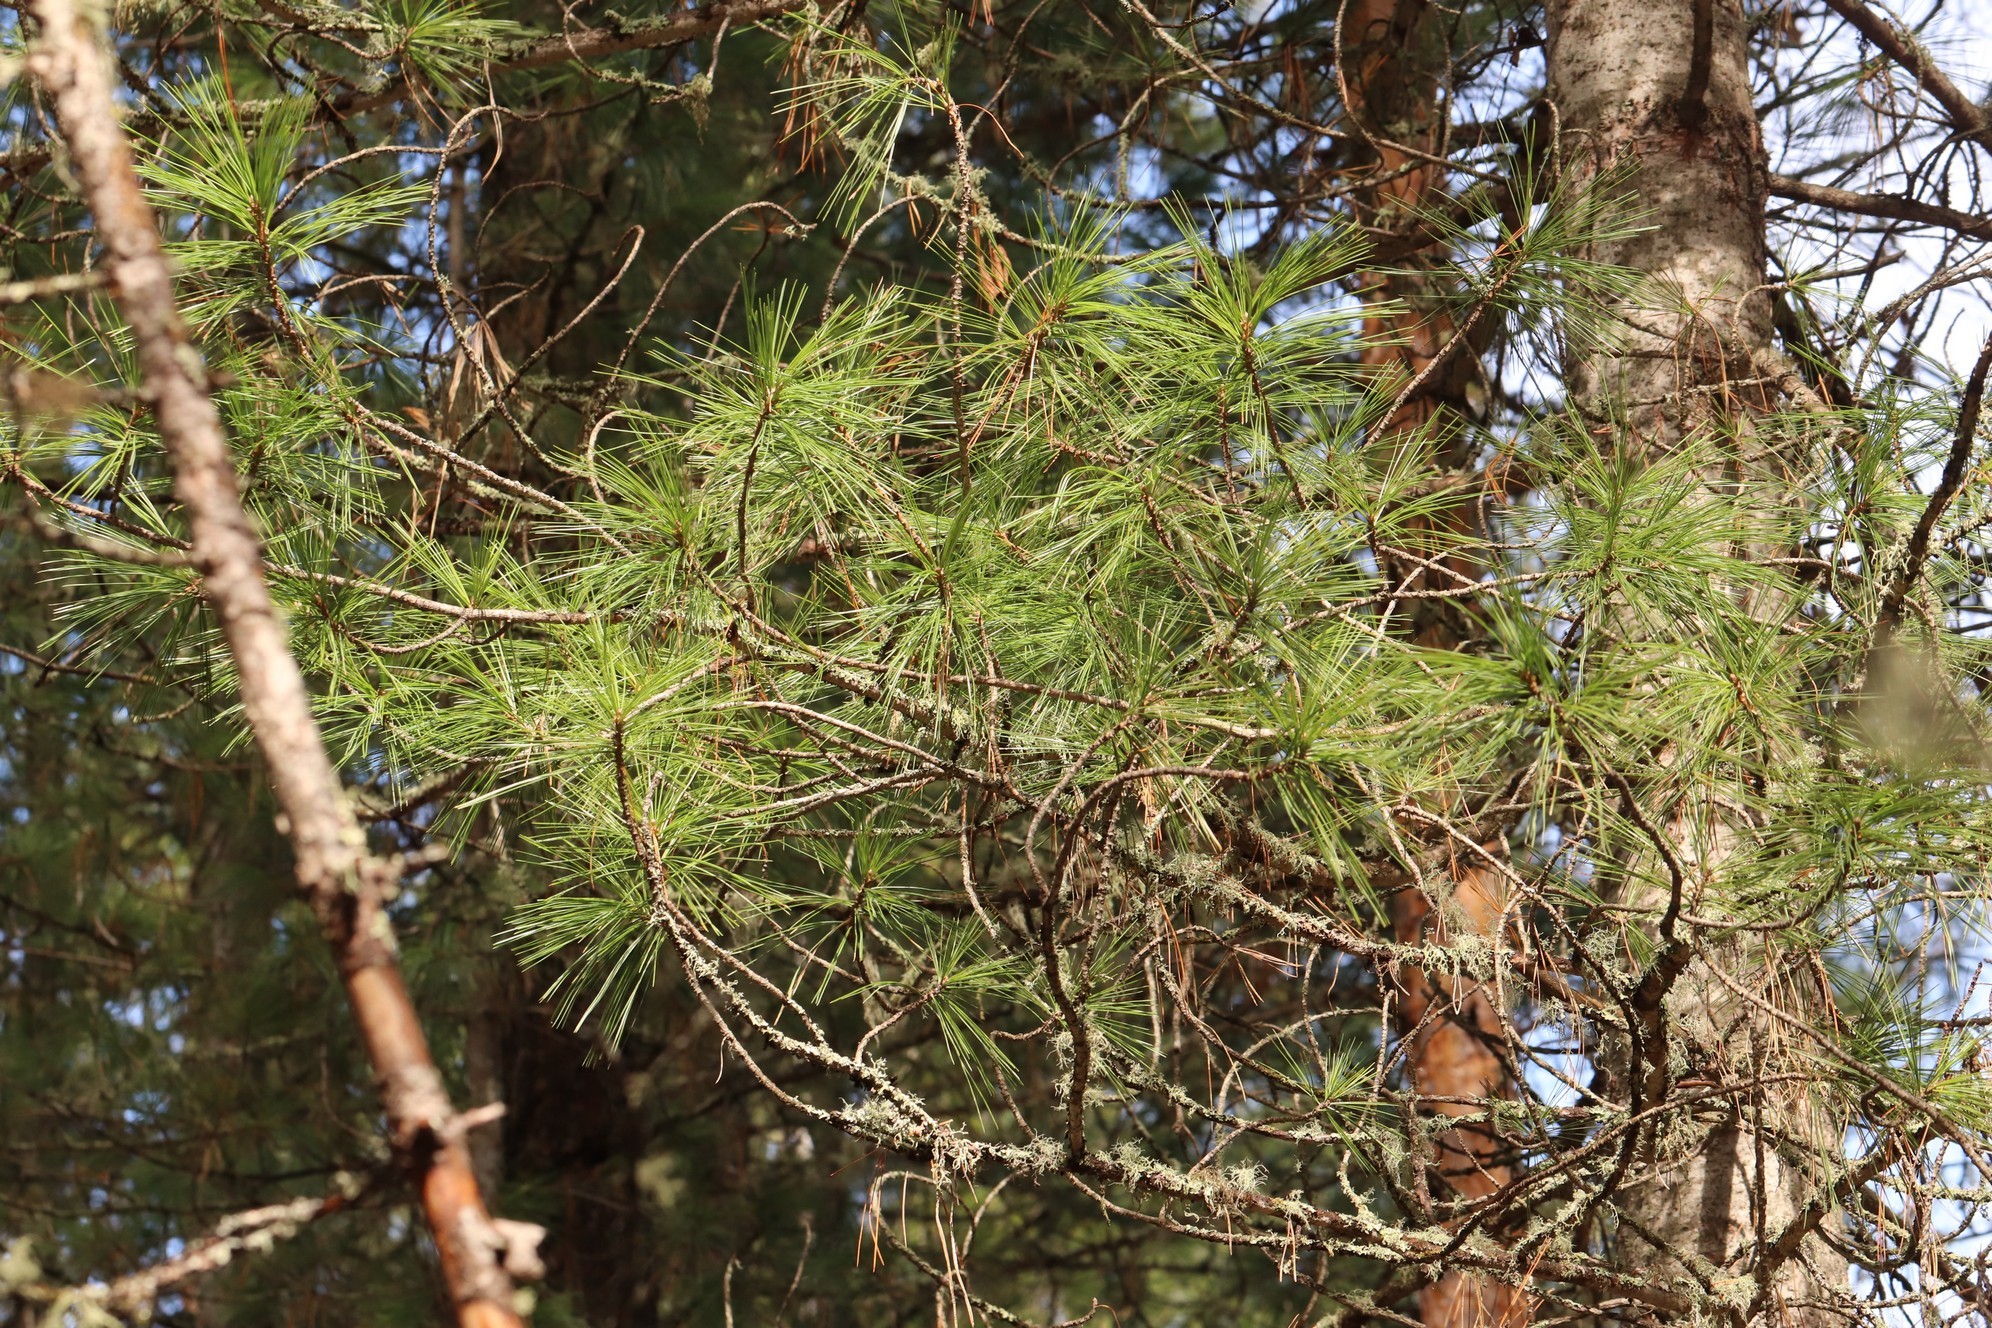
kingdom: Plantae
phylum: Tracheophyta
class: Pinopsida
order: Pinales
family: Pinaceae
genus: Pinus
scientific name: Pinus sibirica
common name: Siberian pine
